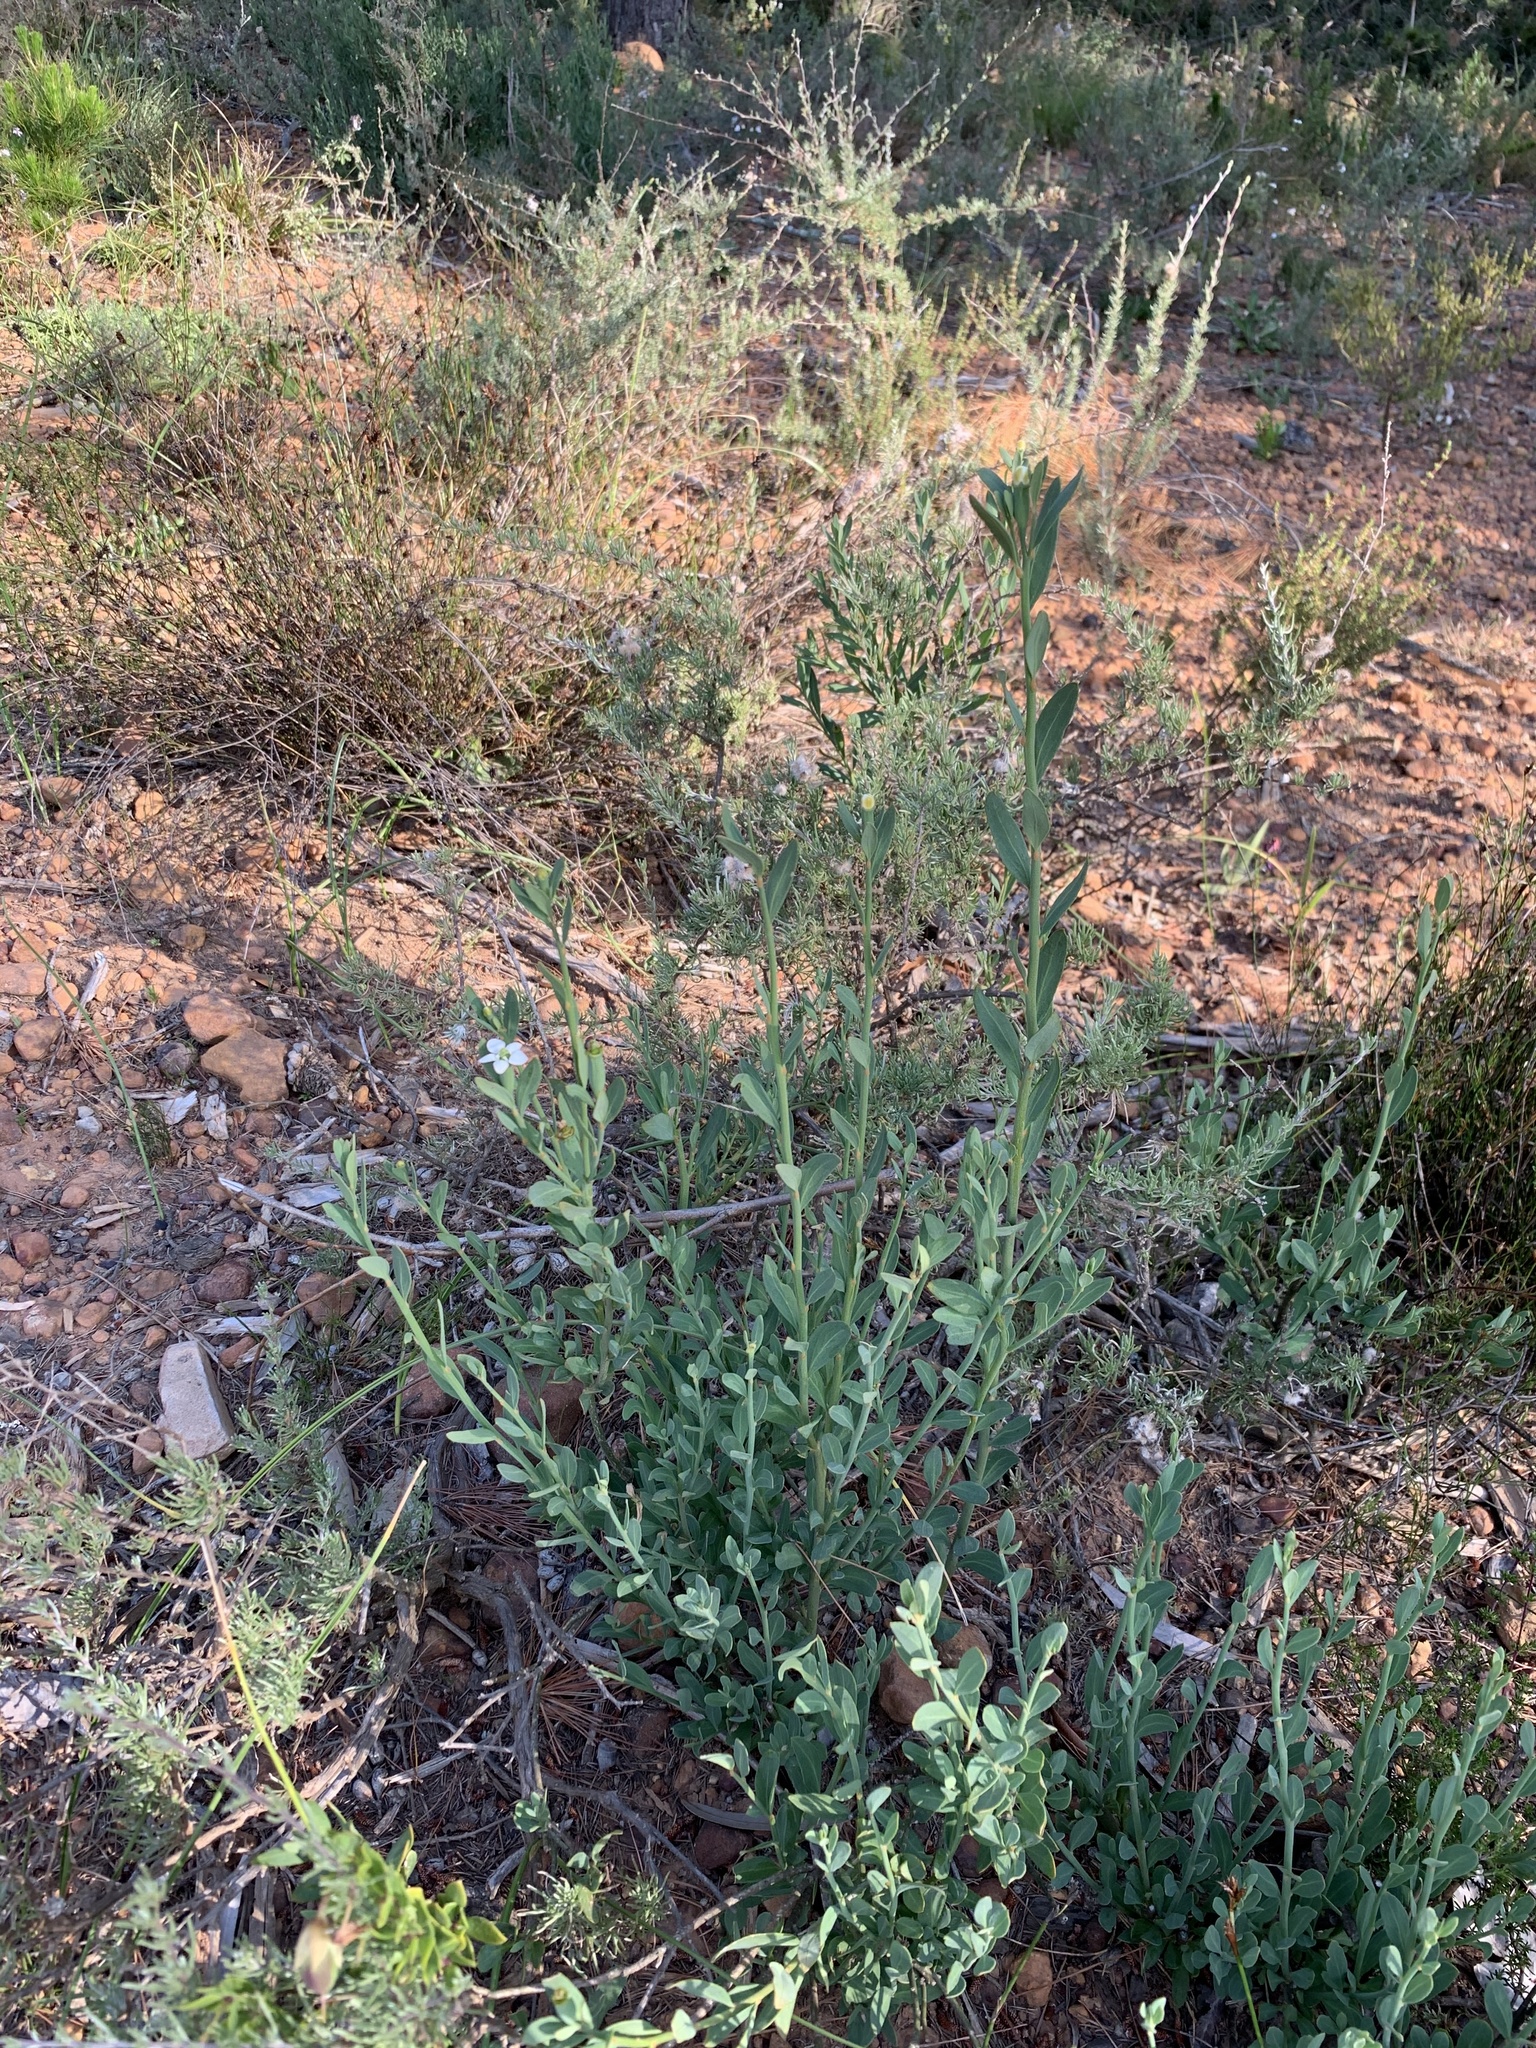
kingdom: Plantae
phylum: Tracheophyta
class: Magnoliopsida
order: Solanales
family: Montiniaceae
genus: Montinia
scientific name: Montinia caryophyllacea
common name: Wild clove-bush
